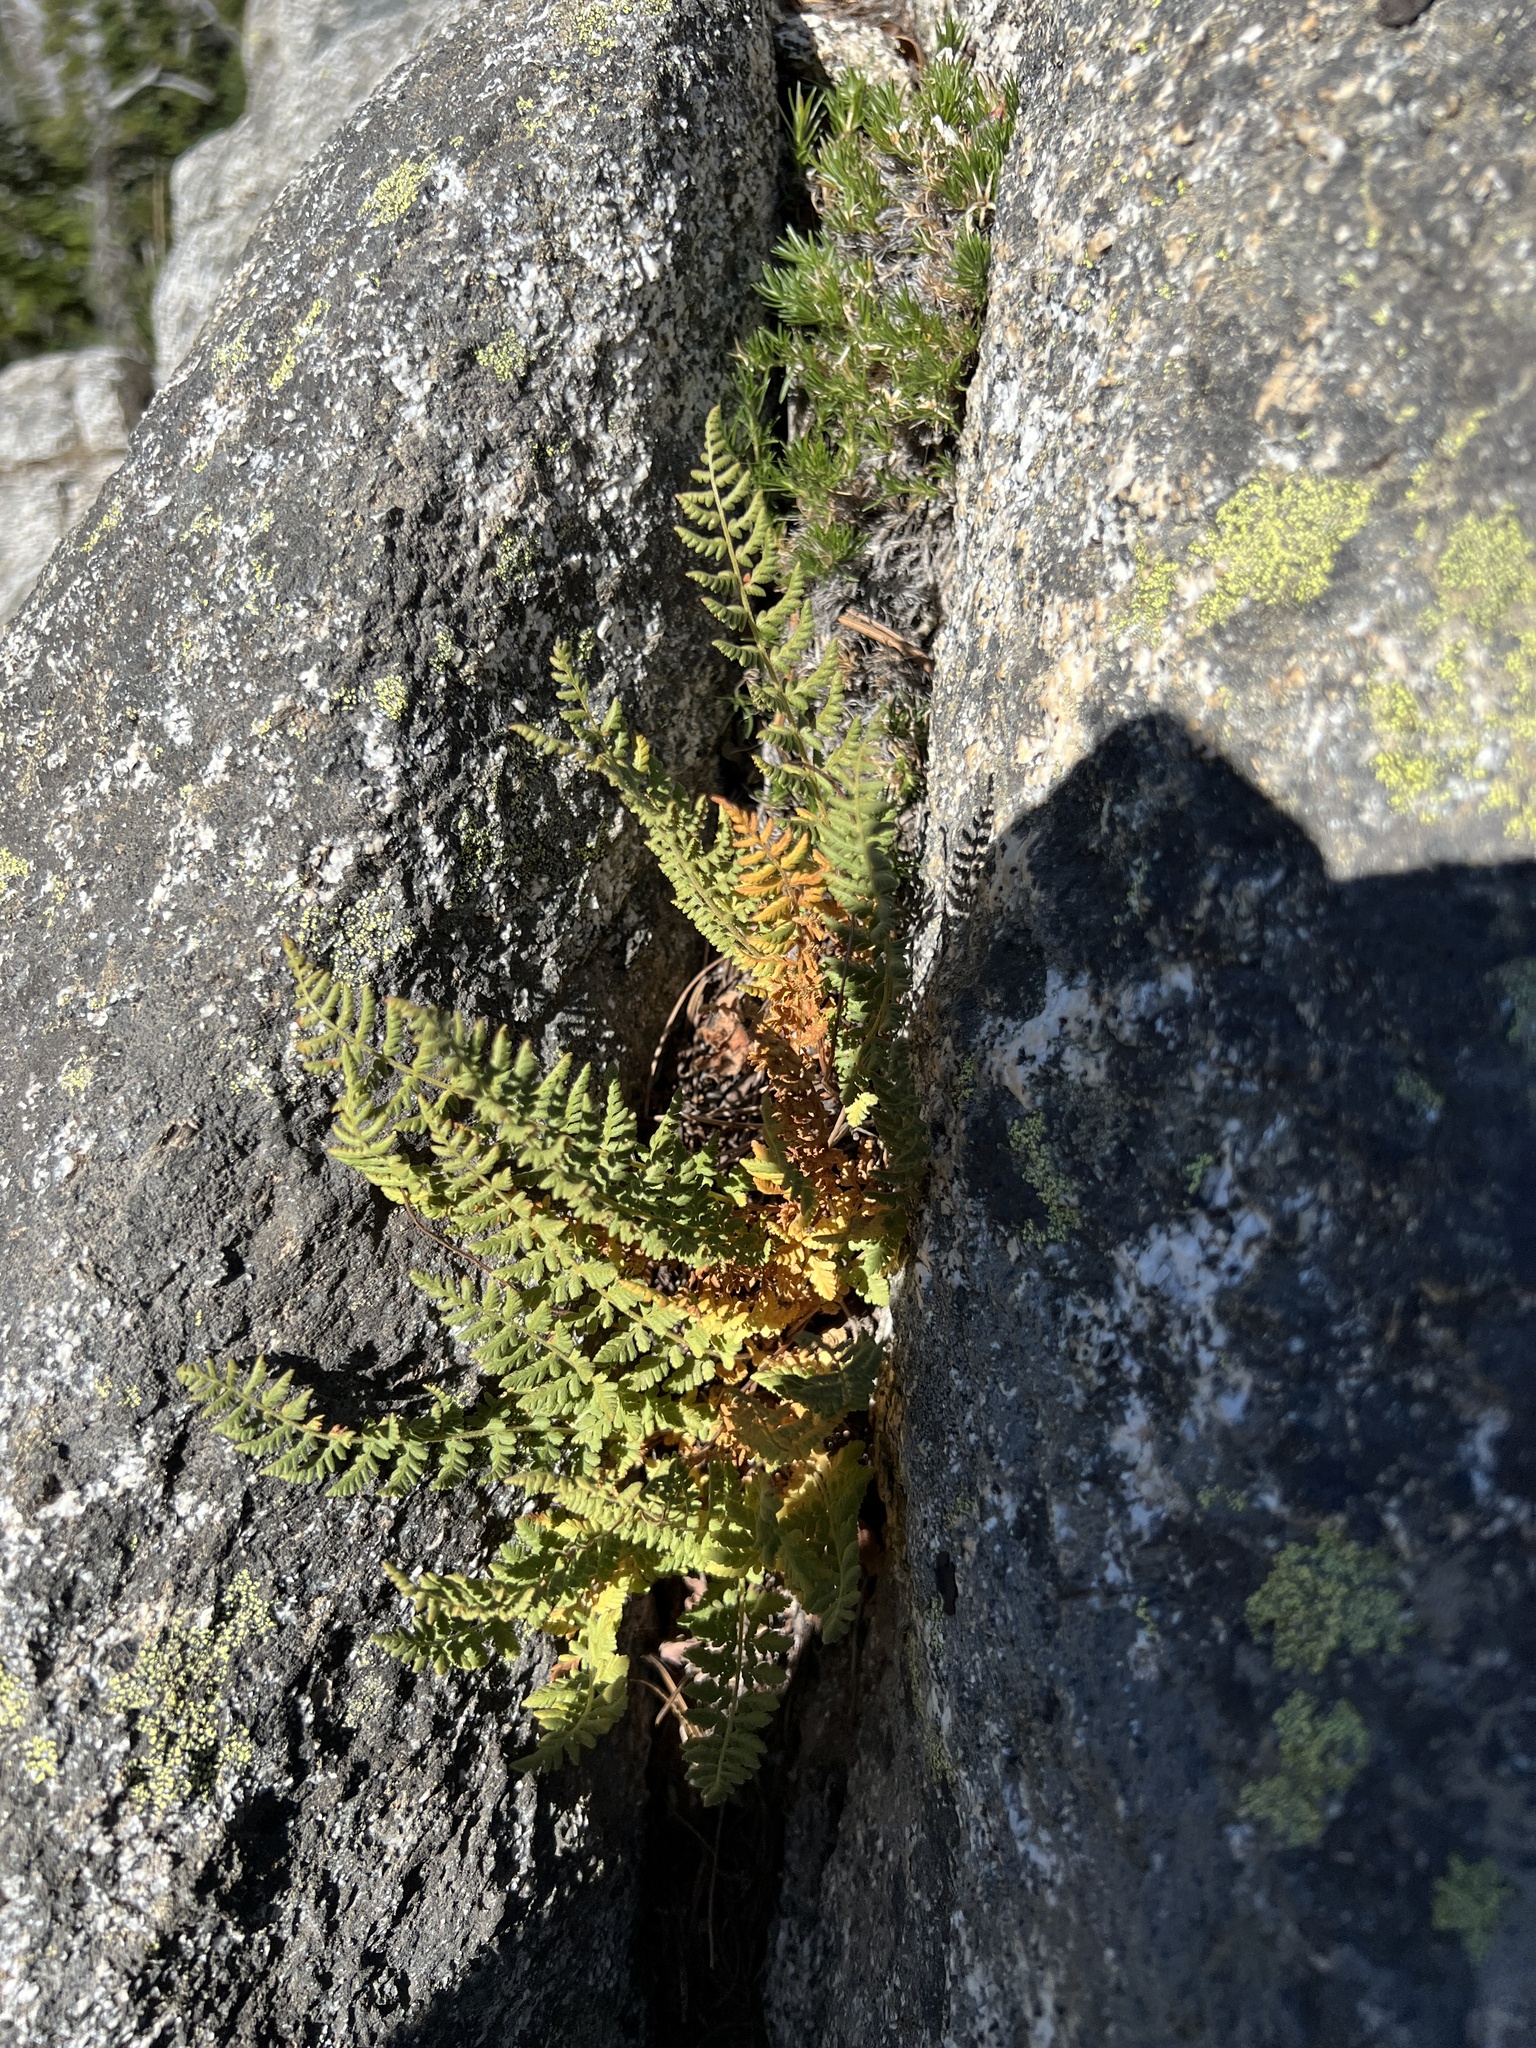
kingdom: Plantae
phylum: Tracheophyta
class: Polypodiopsida
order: Polypodiales
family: Woodsiaceae
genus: Physematium
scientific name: Physematium scopulinum
